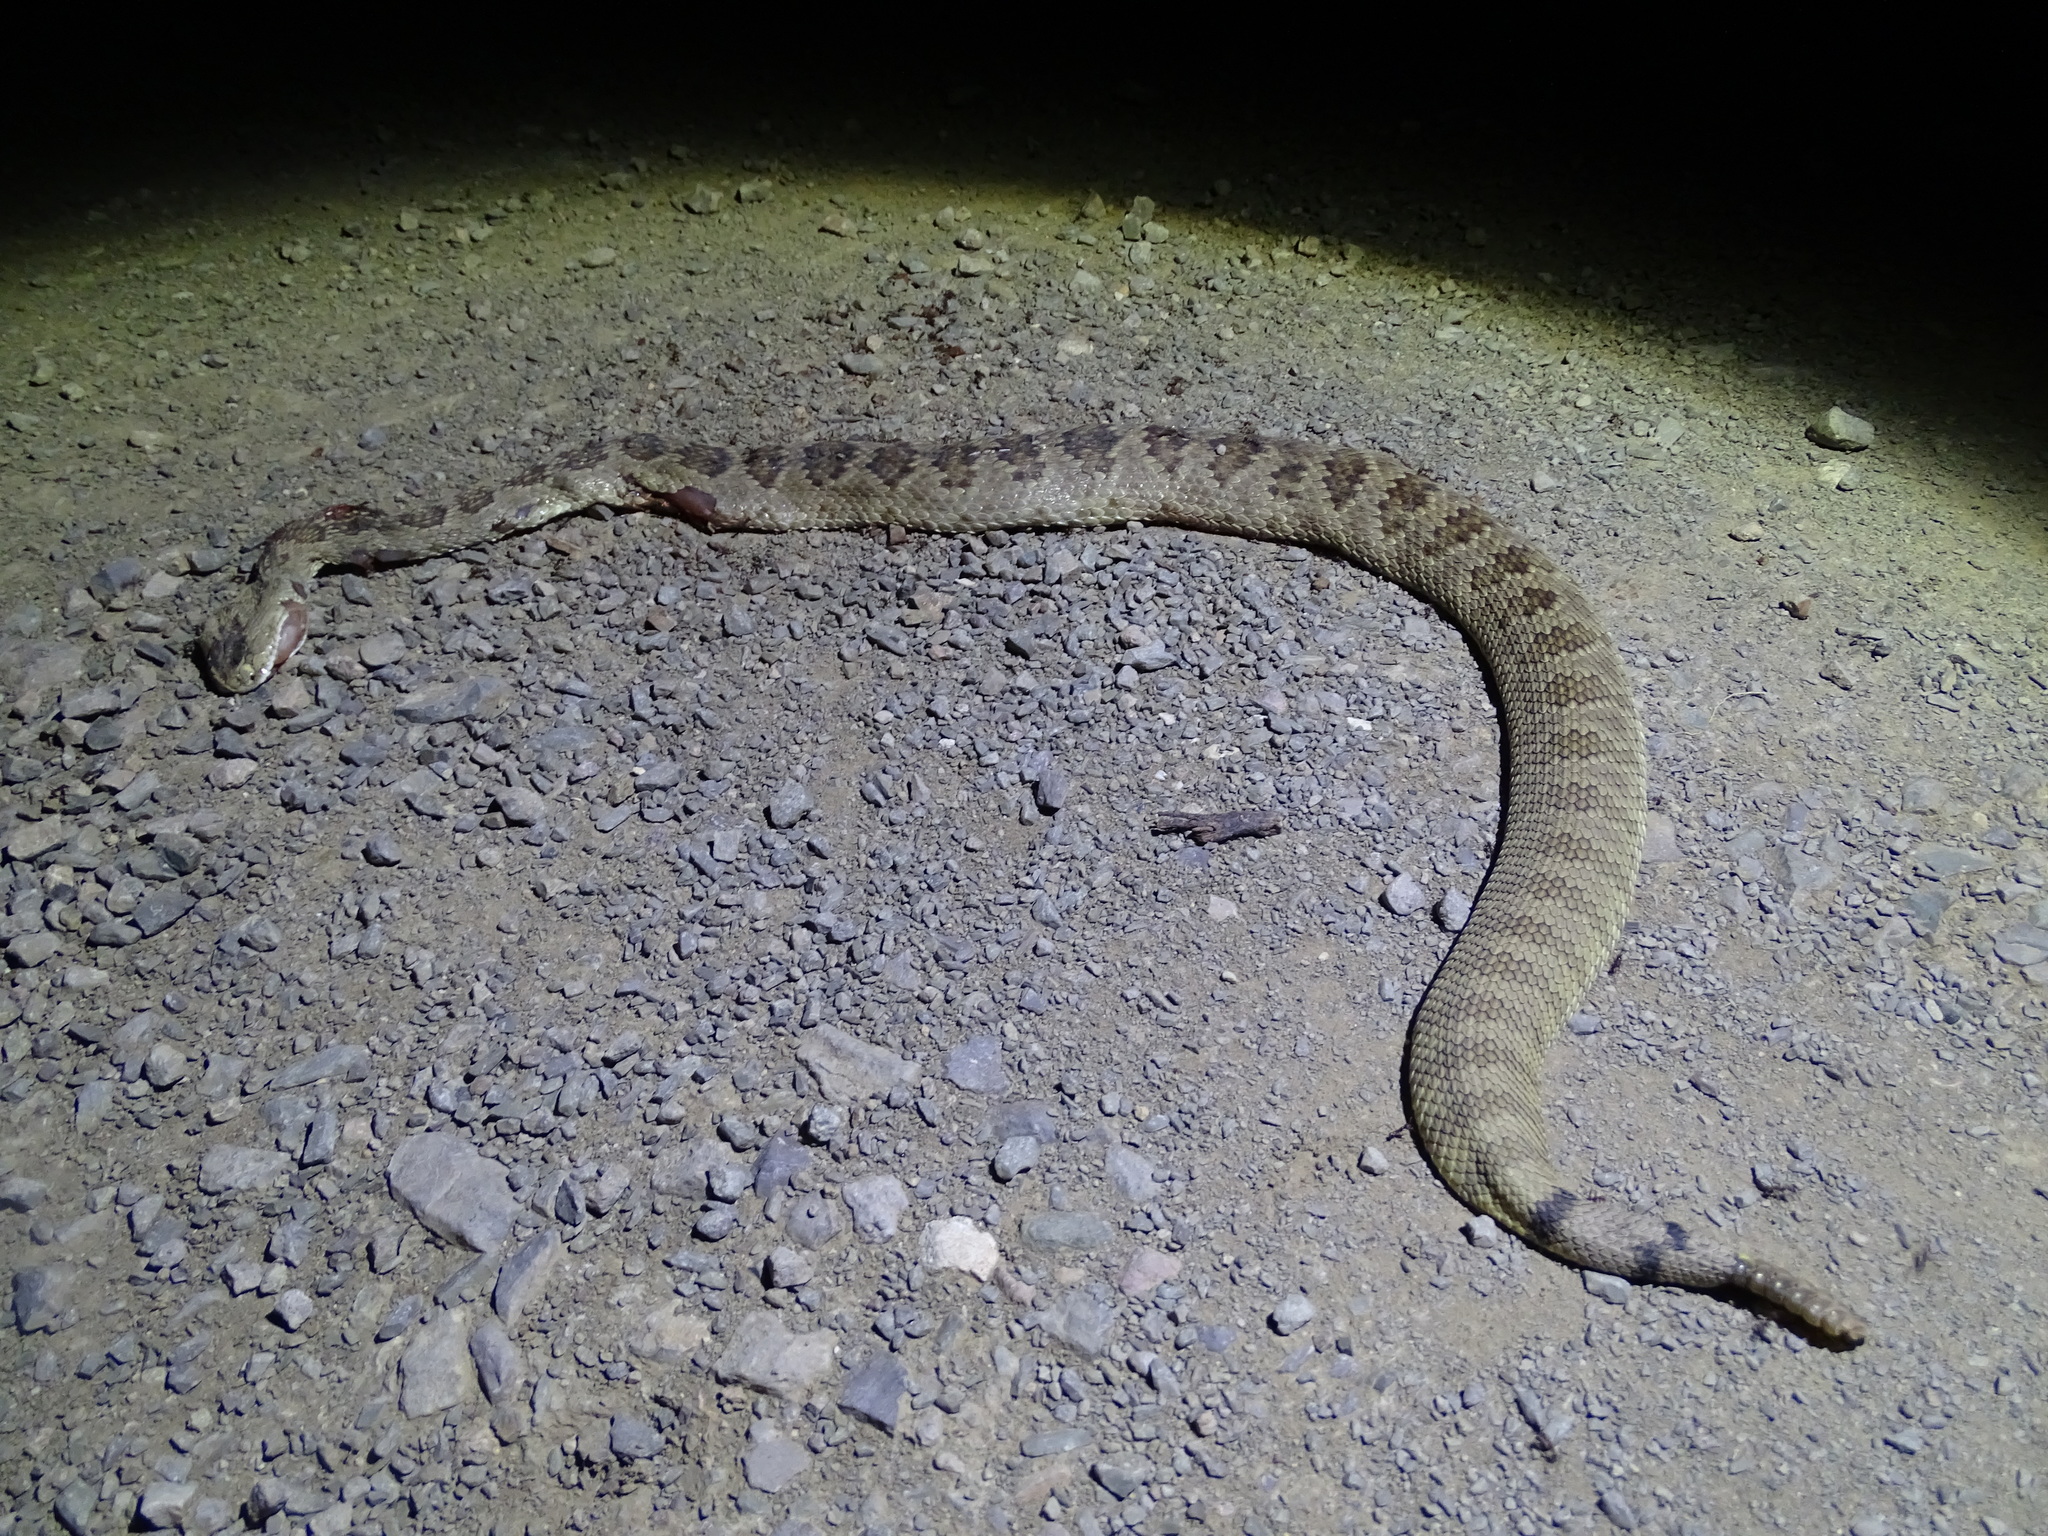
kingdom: Animalia
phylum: Chordata
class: Squamata
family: Viperidae
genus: Crotalus
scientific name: Crotalus scutulatus
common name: Scutulatus
